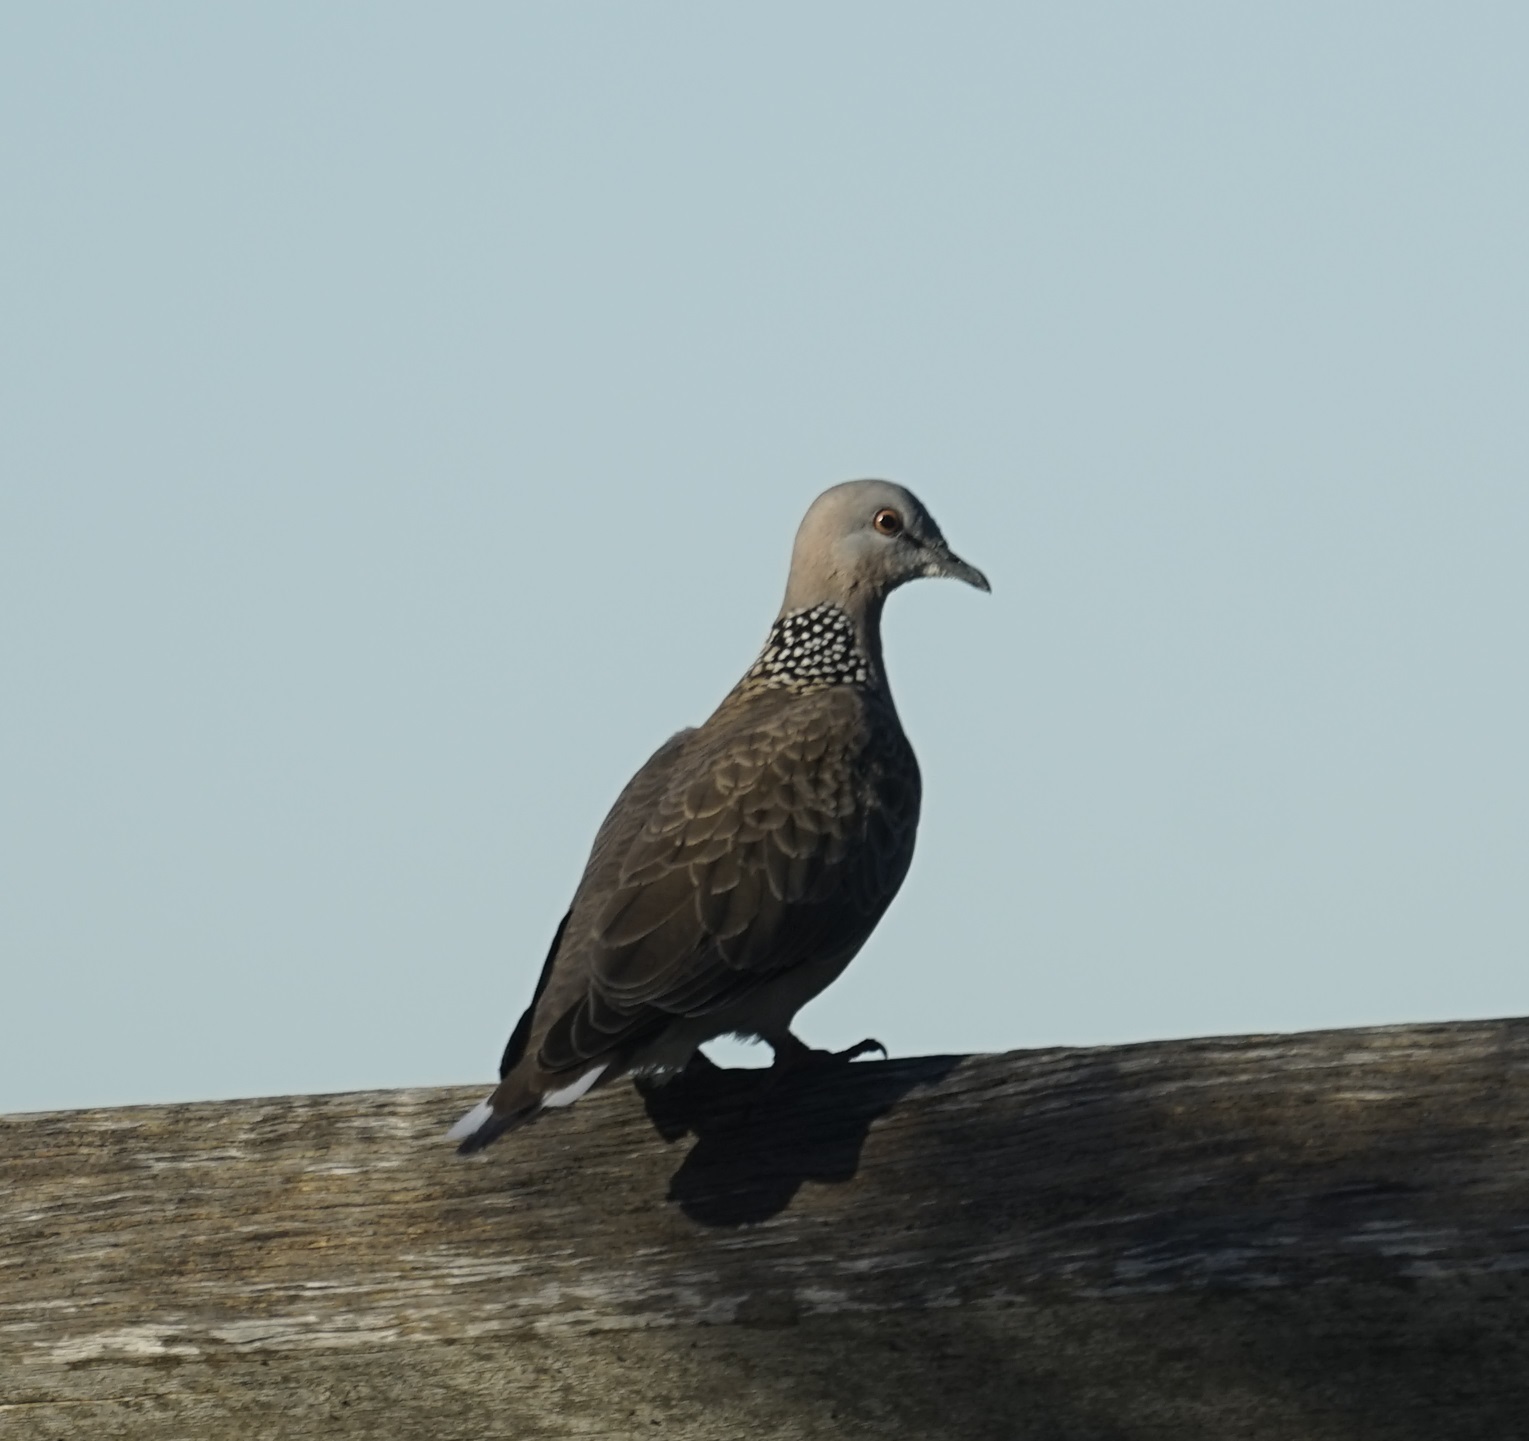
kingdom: Animalia
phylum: Chordata
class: Aves
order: Columbiformes
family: Columbidae
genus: Spilopelia
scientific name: Spilopelia chinensis
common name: Spotted dove
